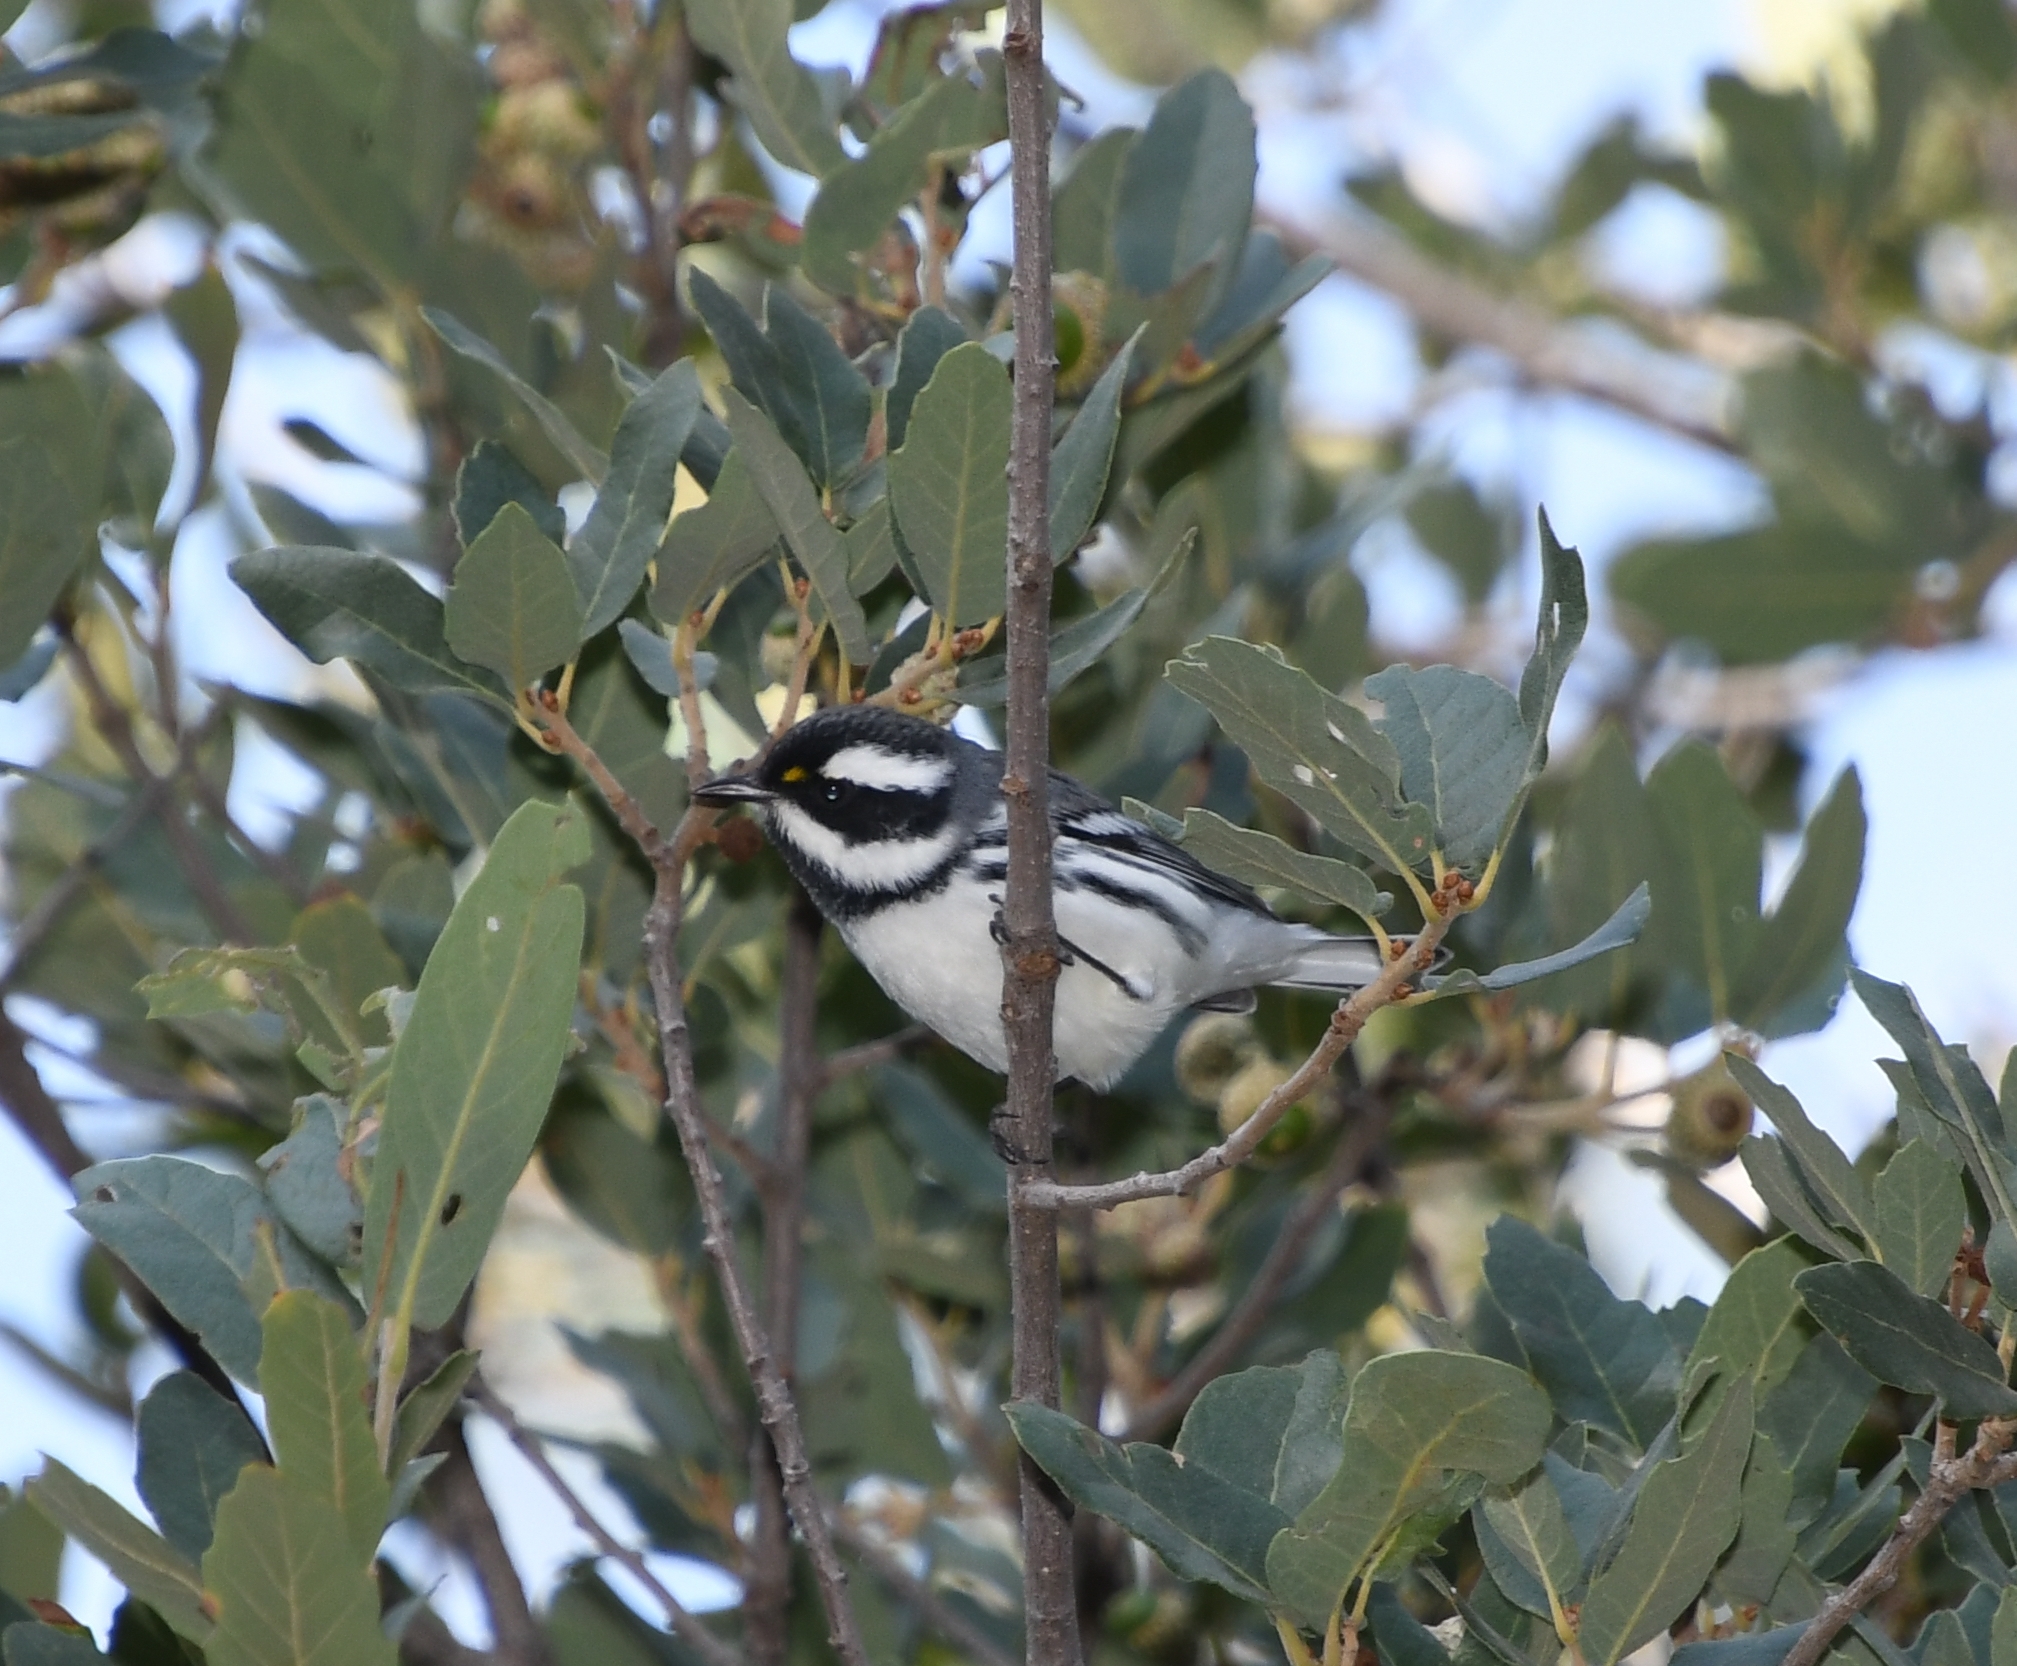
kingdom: Animalia
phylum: Chordata
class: Aves
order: Passeriformes
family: Parulidae
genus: Setophaga
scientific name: Setophaga nigrescens
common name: Black-throated gray warbler
